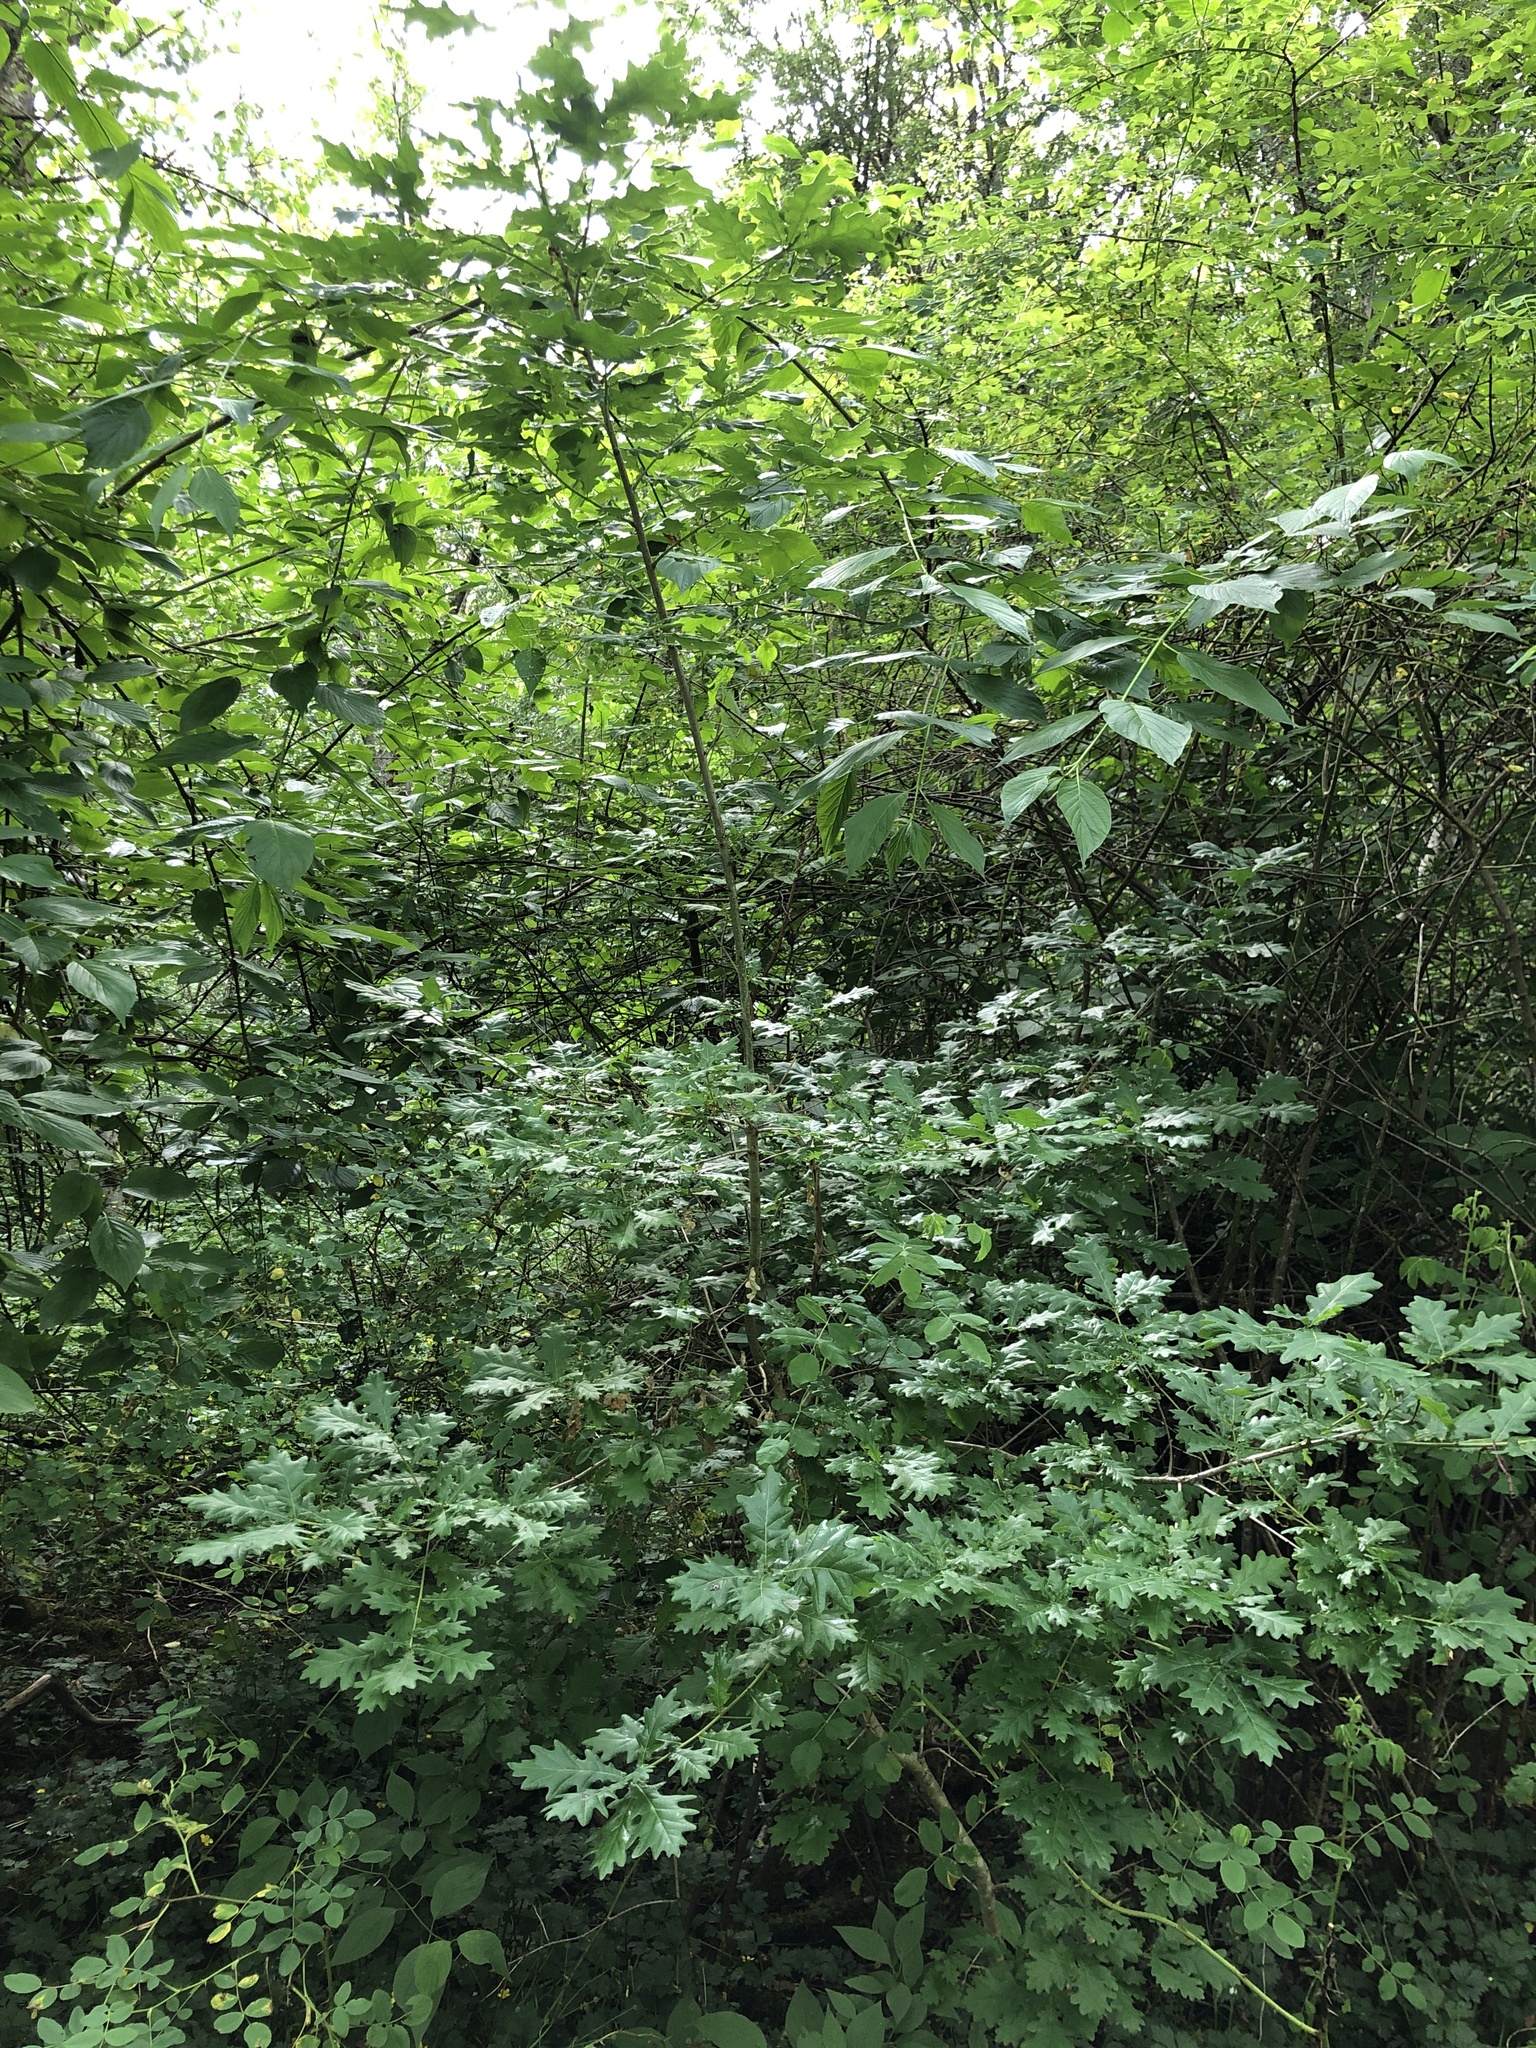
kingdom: Plantae
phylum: Tracheophyta
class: Magnoliopsida
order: Fagales
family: Fagaceae
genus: Quercus
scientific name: Quercus robur
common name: Pedunculate oak
